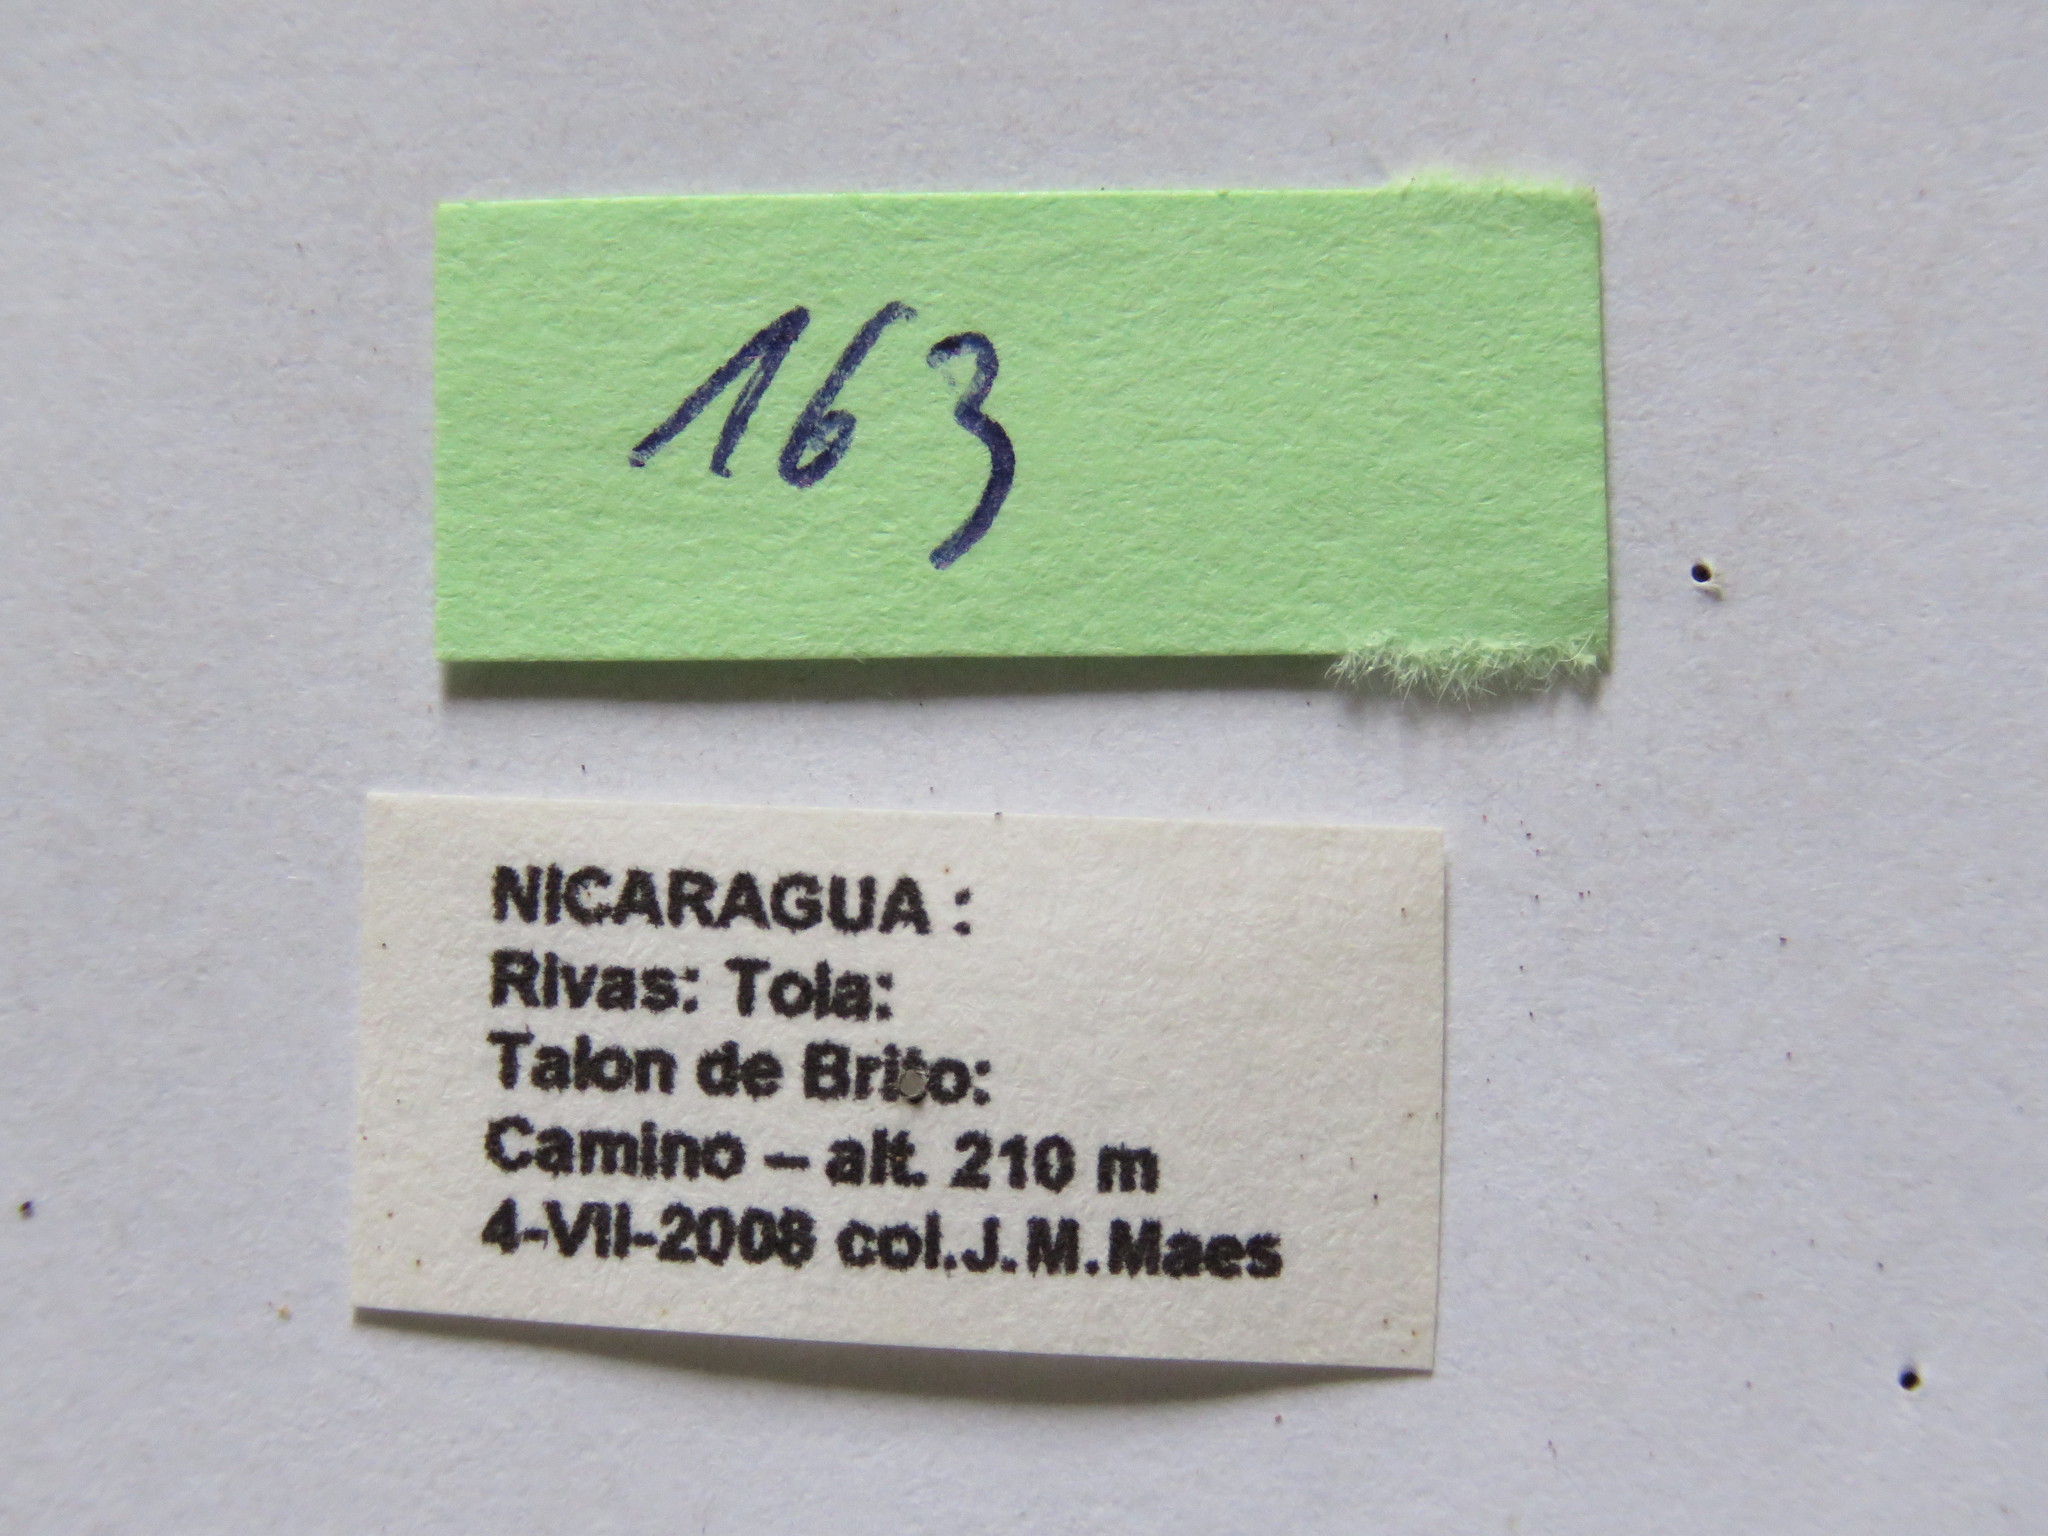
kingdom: Animalia
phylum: Arthropoda
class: Insecta
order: Hemiptera
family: Coreidae
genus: Cimolus
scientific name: Cimolus vitticeps
